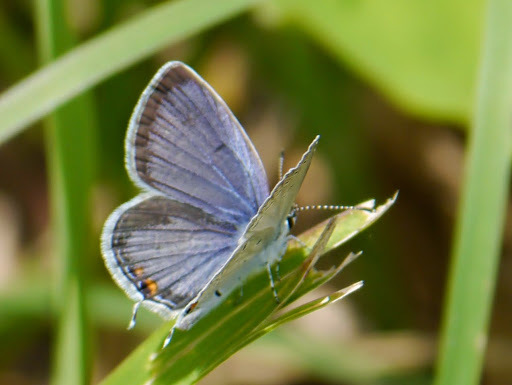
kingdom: Animalia
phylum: Arthropoda
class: Insecta
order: Lepidoptera
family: Lycaenidae
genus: Elkalyce
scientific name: Elkalyce comyntas
